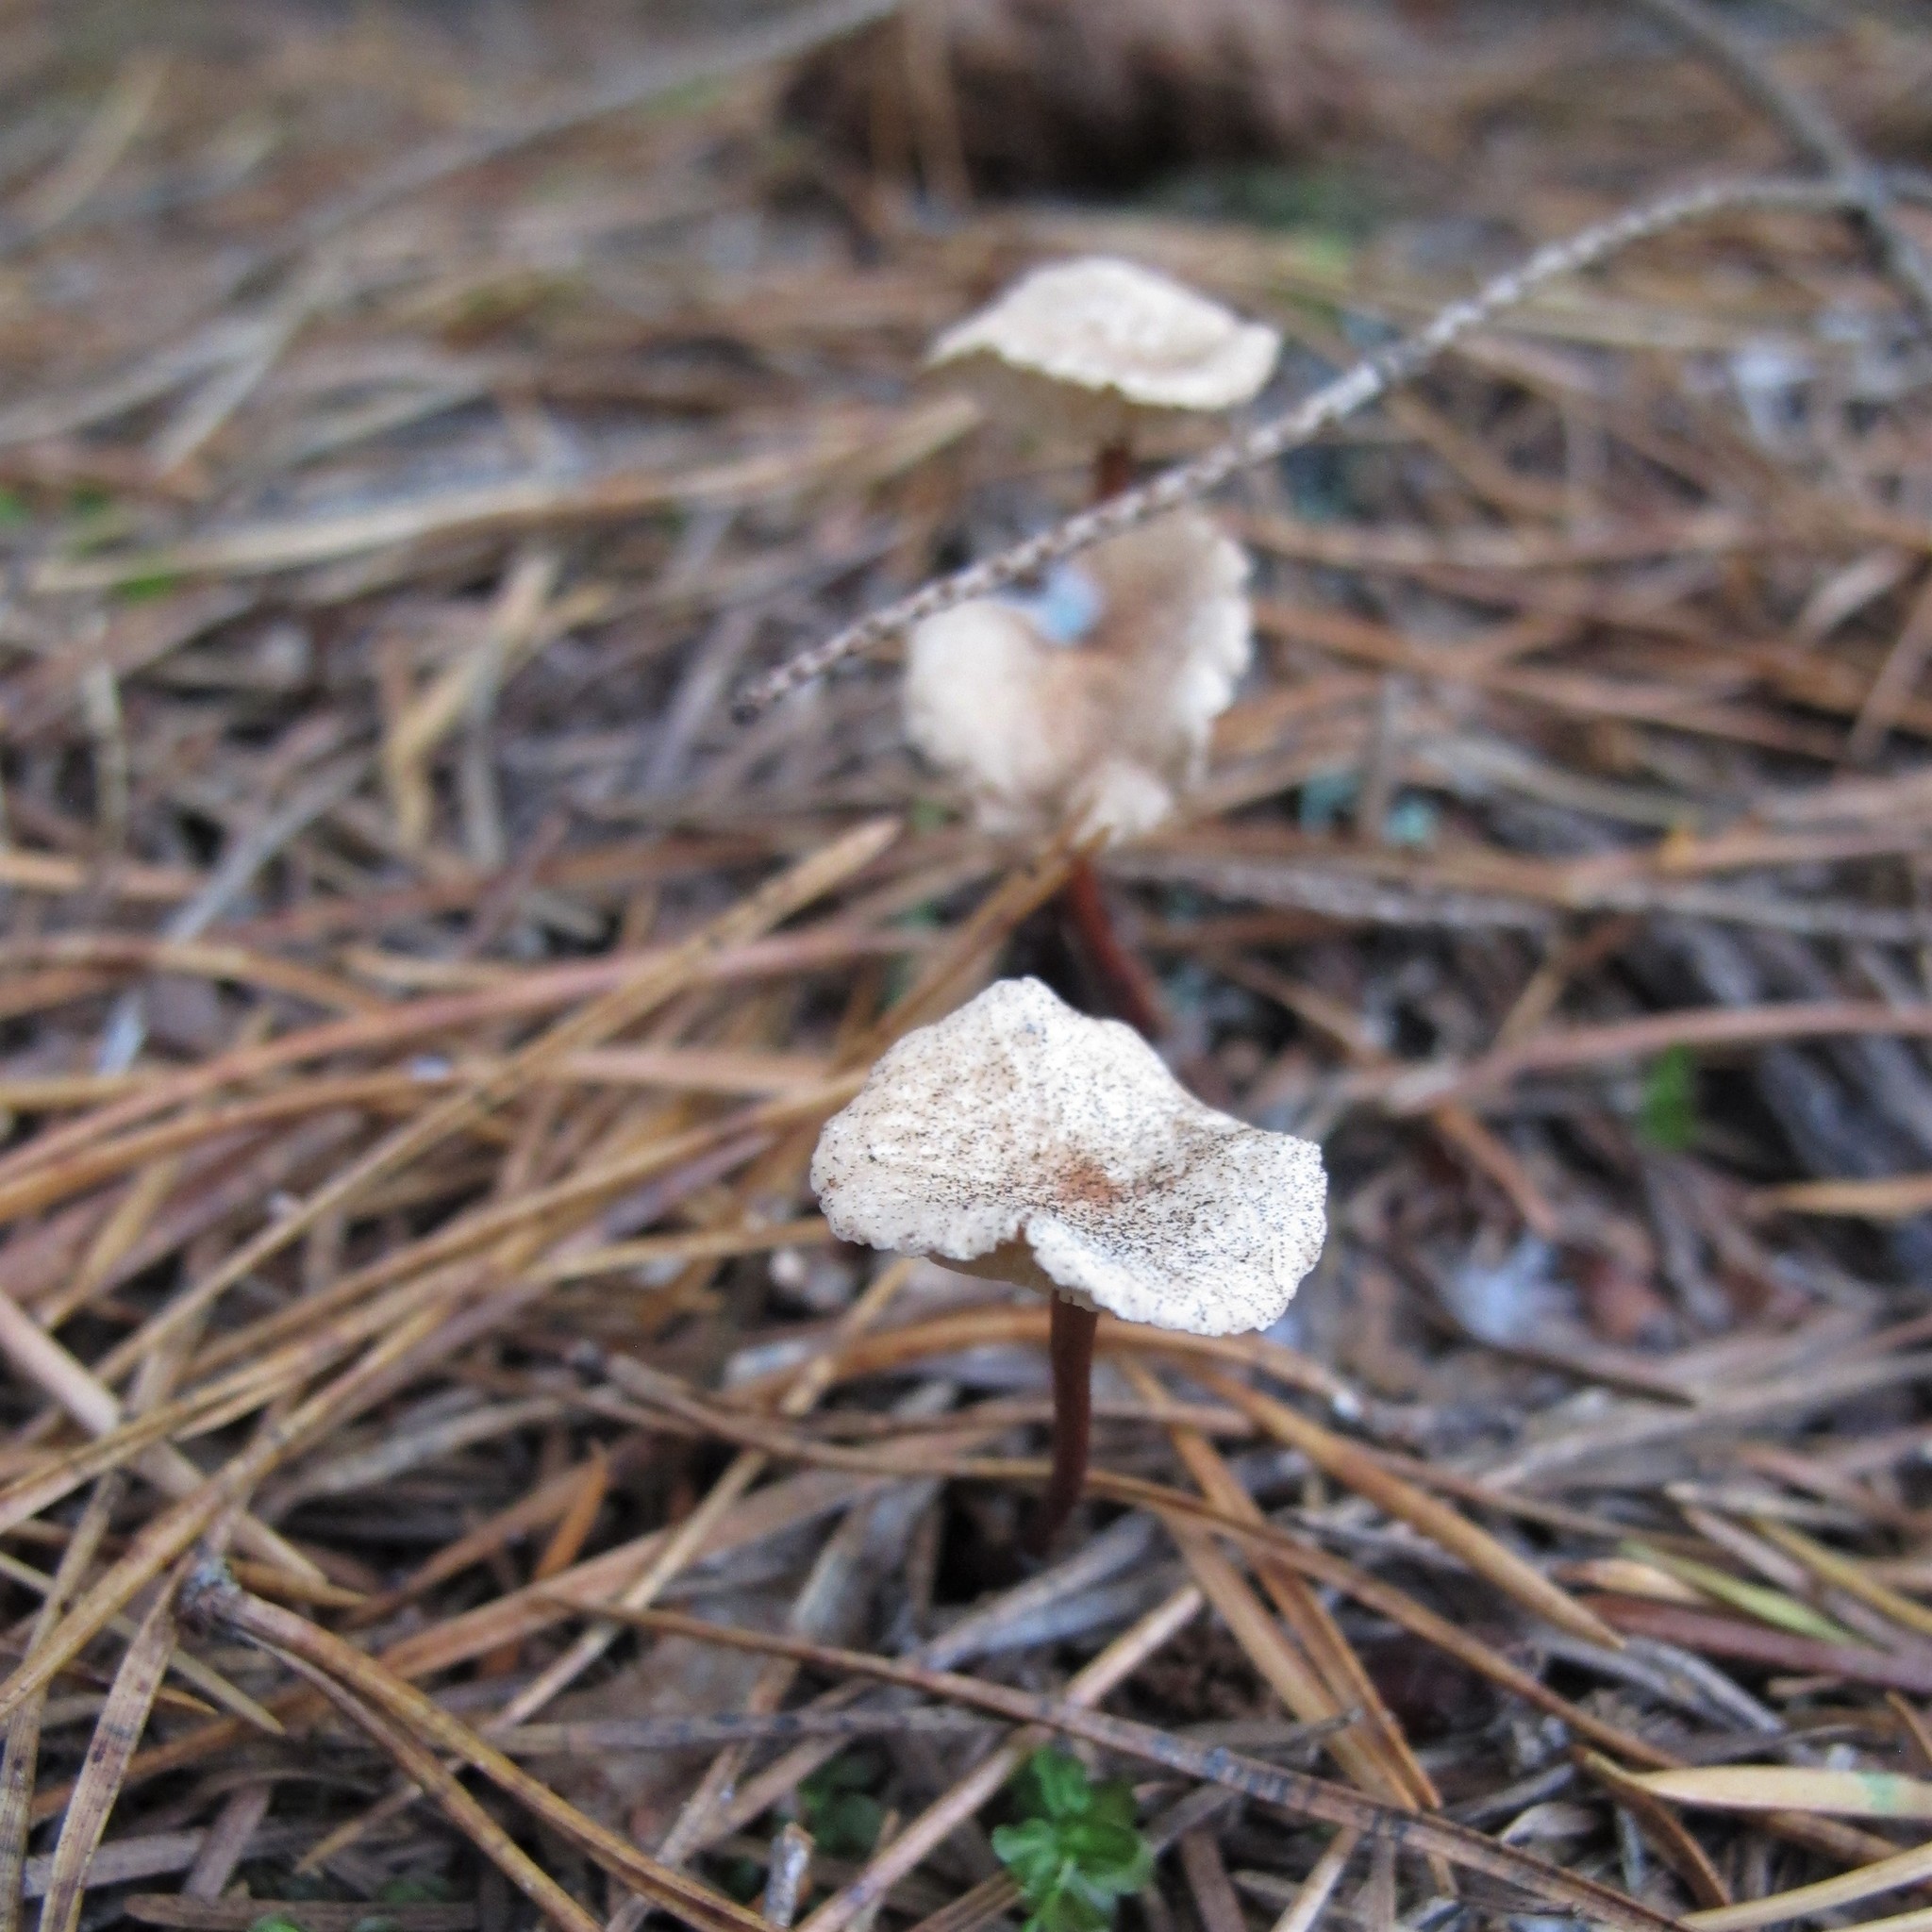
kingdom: Fungi
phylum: Basidiomycota
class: Agaricomycetes
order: Agaricales
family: Omphalotaceae
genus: Mycetinis
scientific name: Mycetinis scorodonius
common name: Vampires bane
